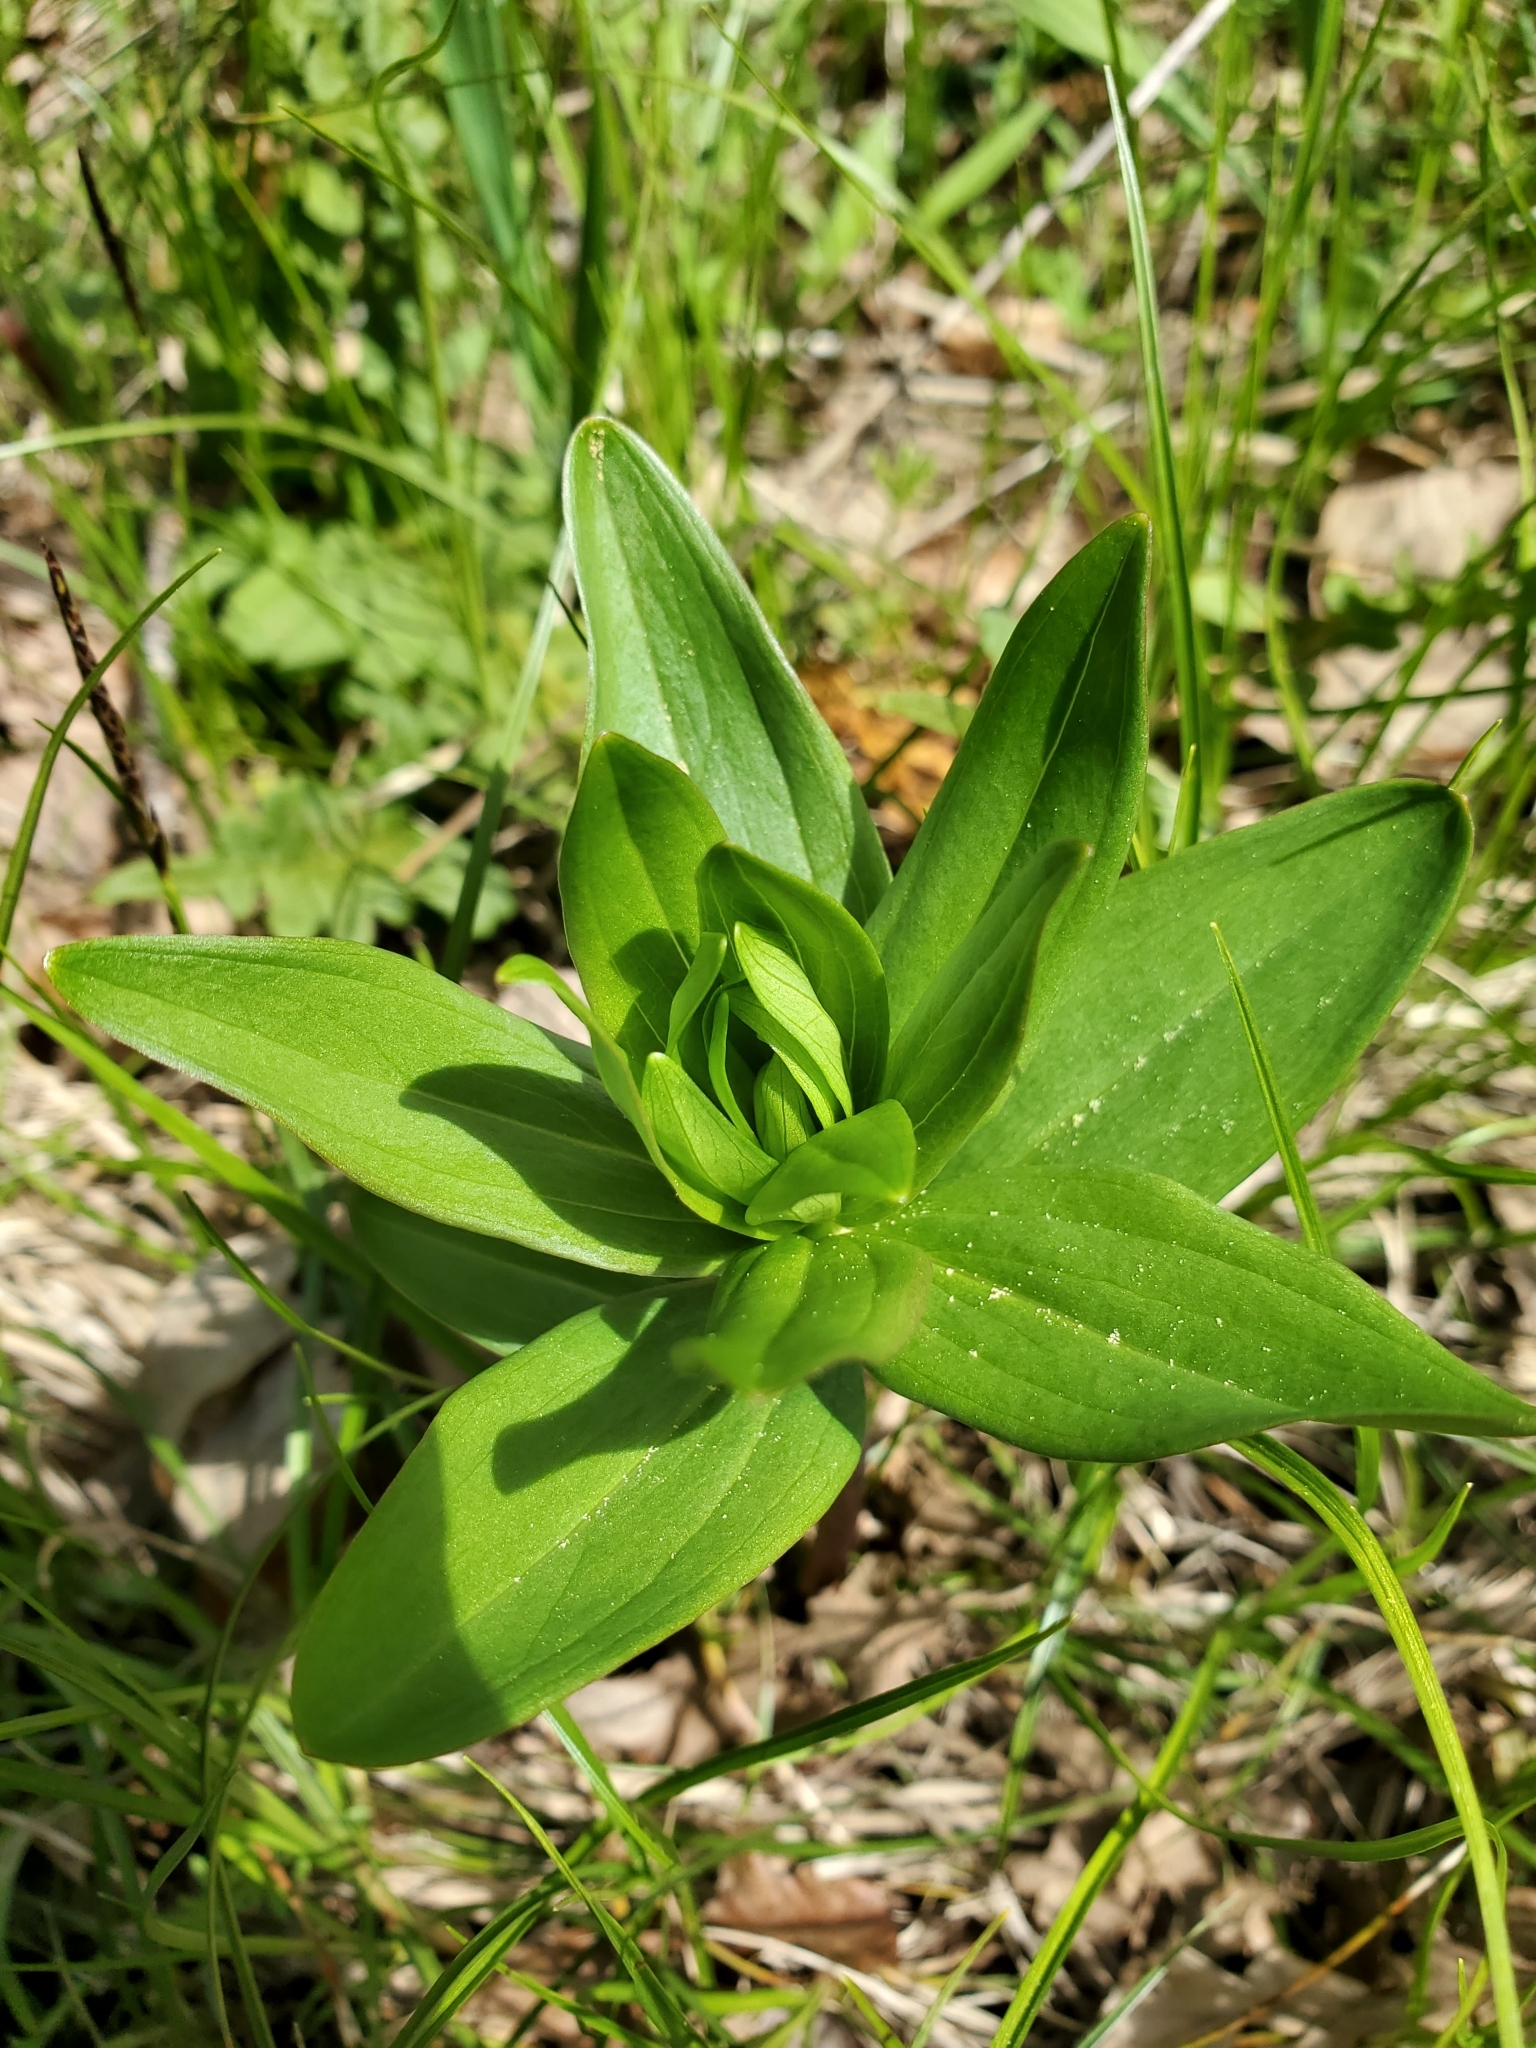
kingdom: Plantae
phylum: Tracheophyta
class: Liliopsida
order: Liliales
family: Liliaceae
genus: Lilium
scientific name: Lilium columbianum
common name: Columbia lily
